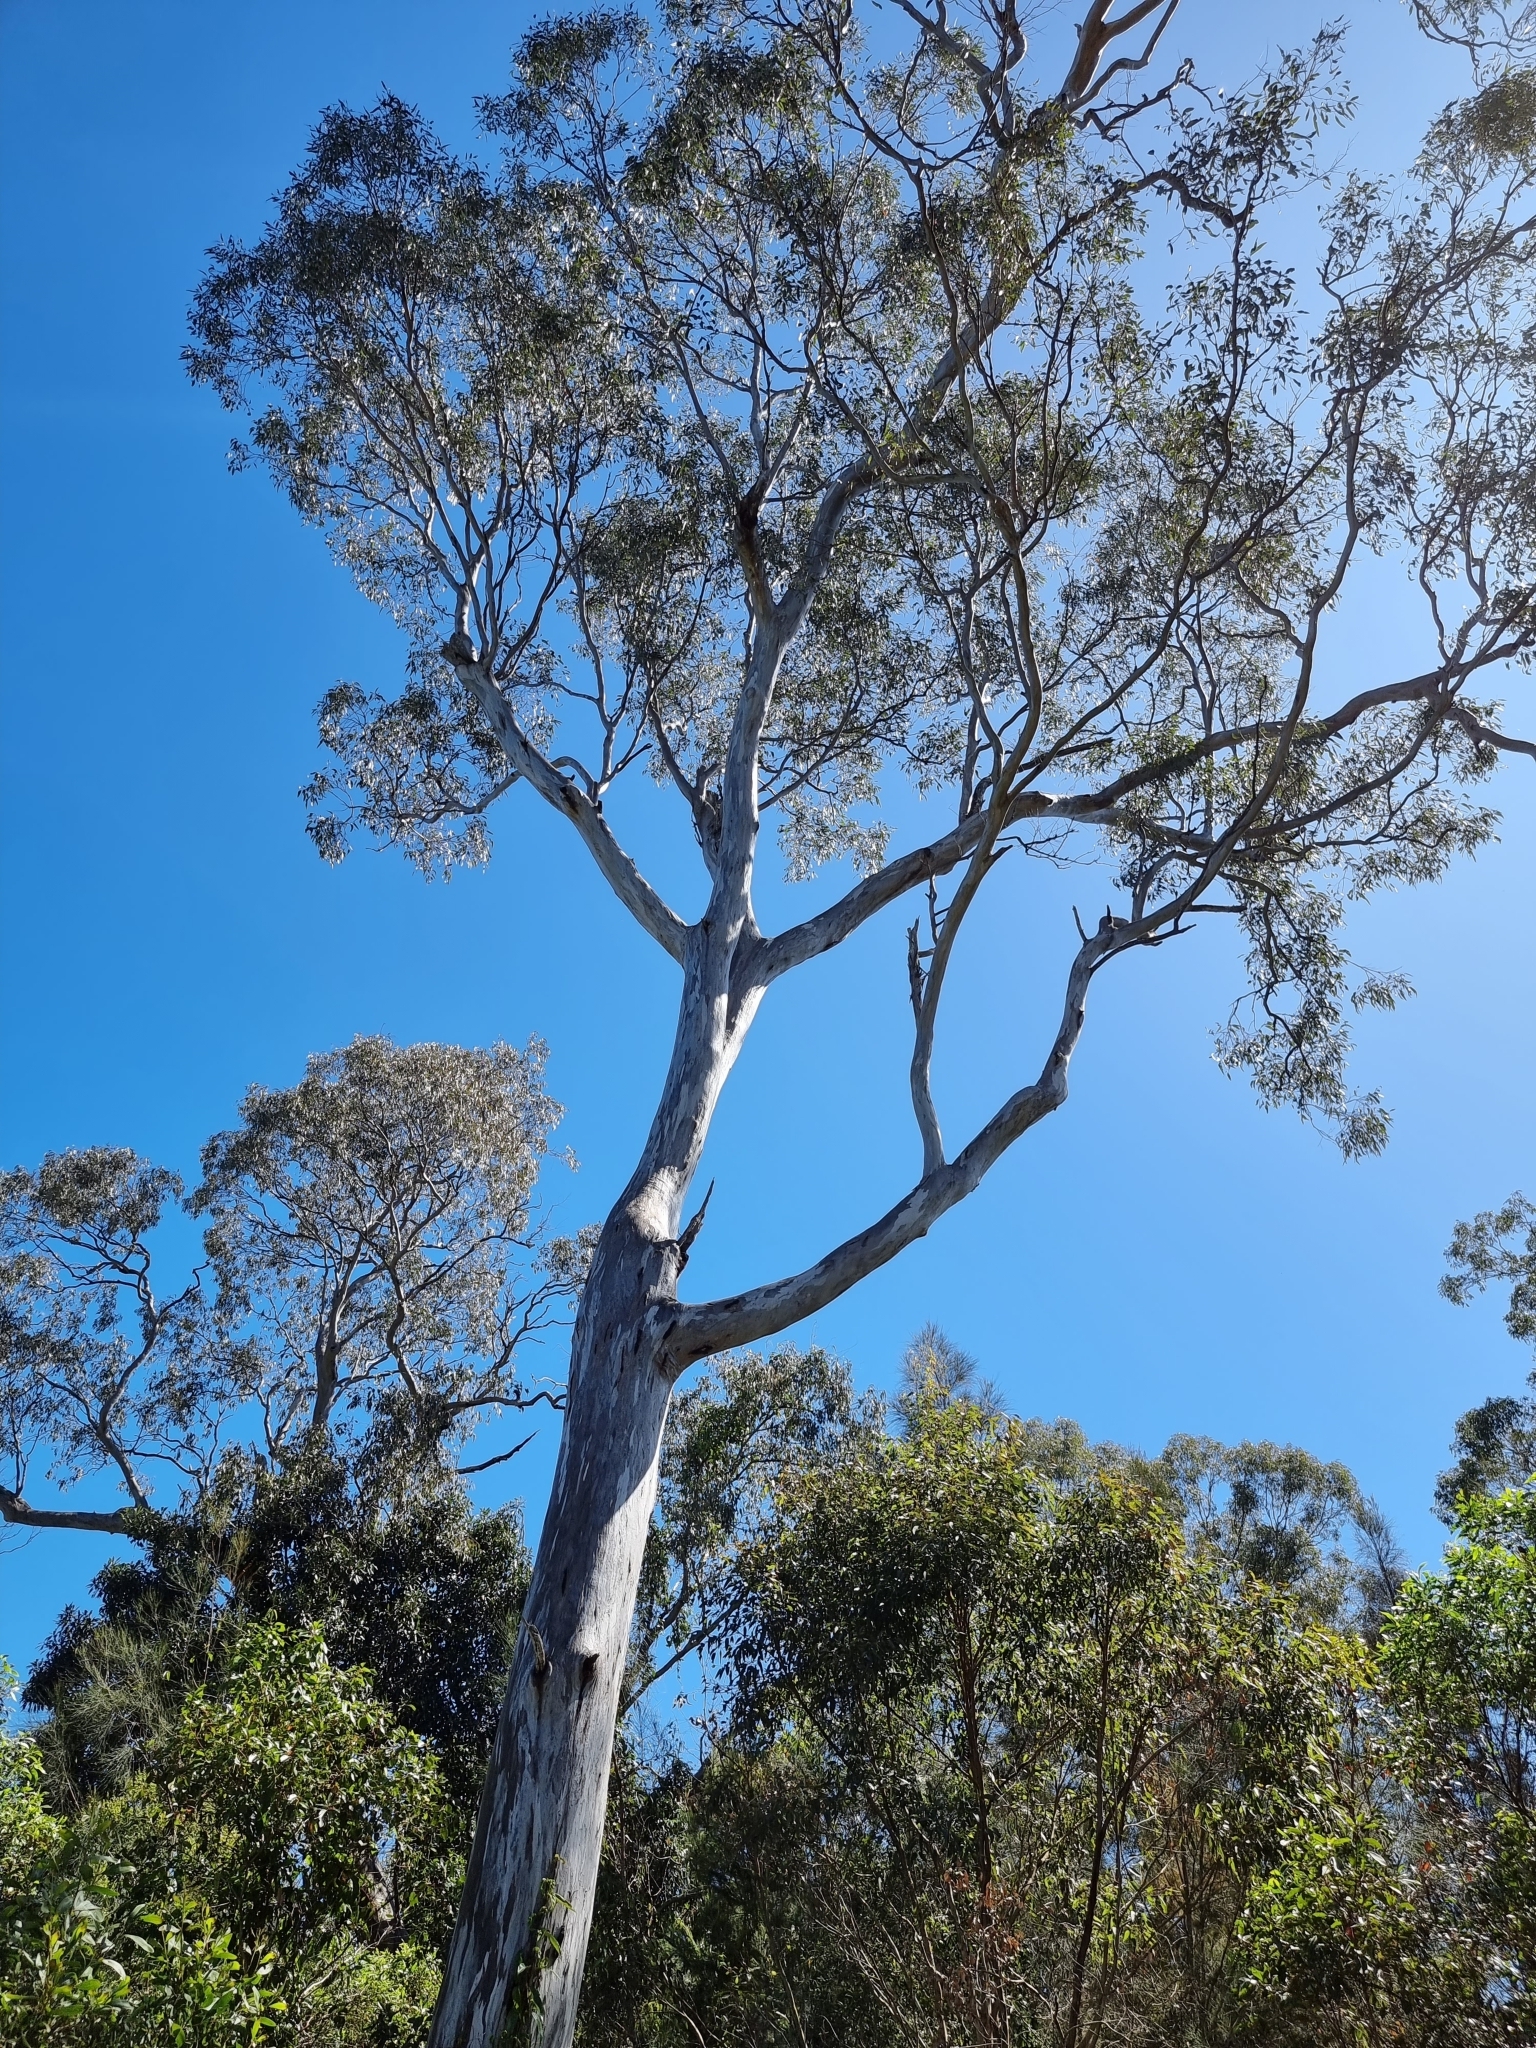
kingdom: Plantae
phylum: Tracheophyta
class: Magnoliopsida
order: Myrtales
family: Myrtaceae
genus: Eucalyptus
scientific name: Eucalyptus tereticornis
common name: Forest redgum
